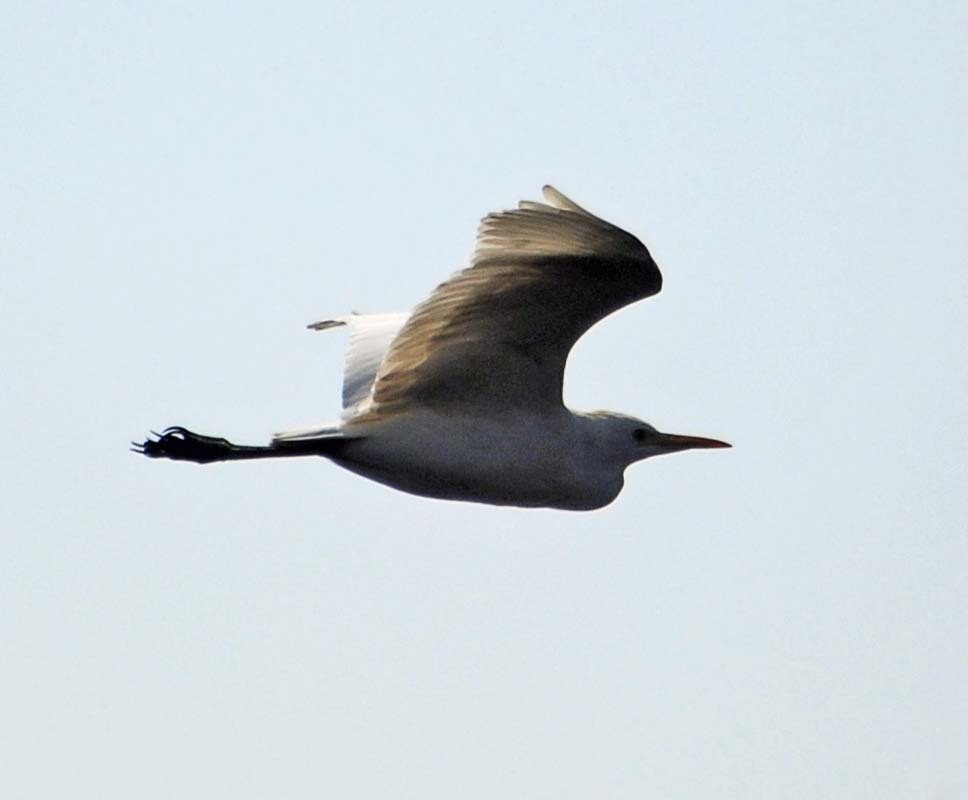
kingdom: Animalia
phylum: Chordata
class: Aves
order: Pelecaniformes
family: Ardeidae
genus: Bubulcus
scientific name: Bubulcus ibis
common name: Cattle egret
